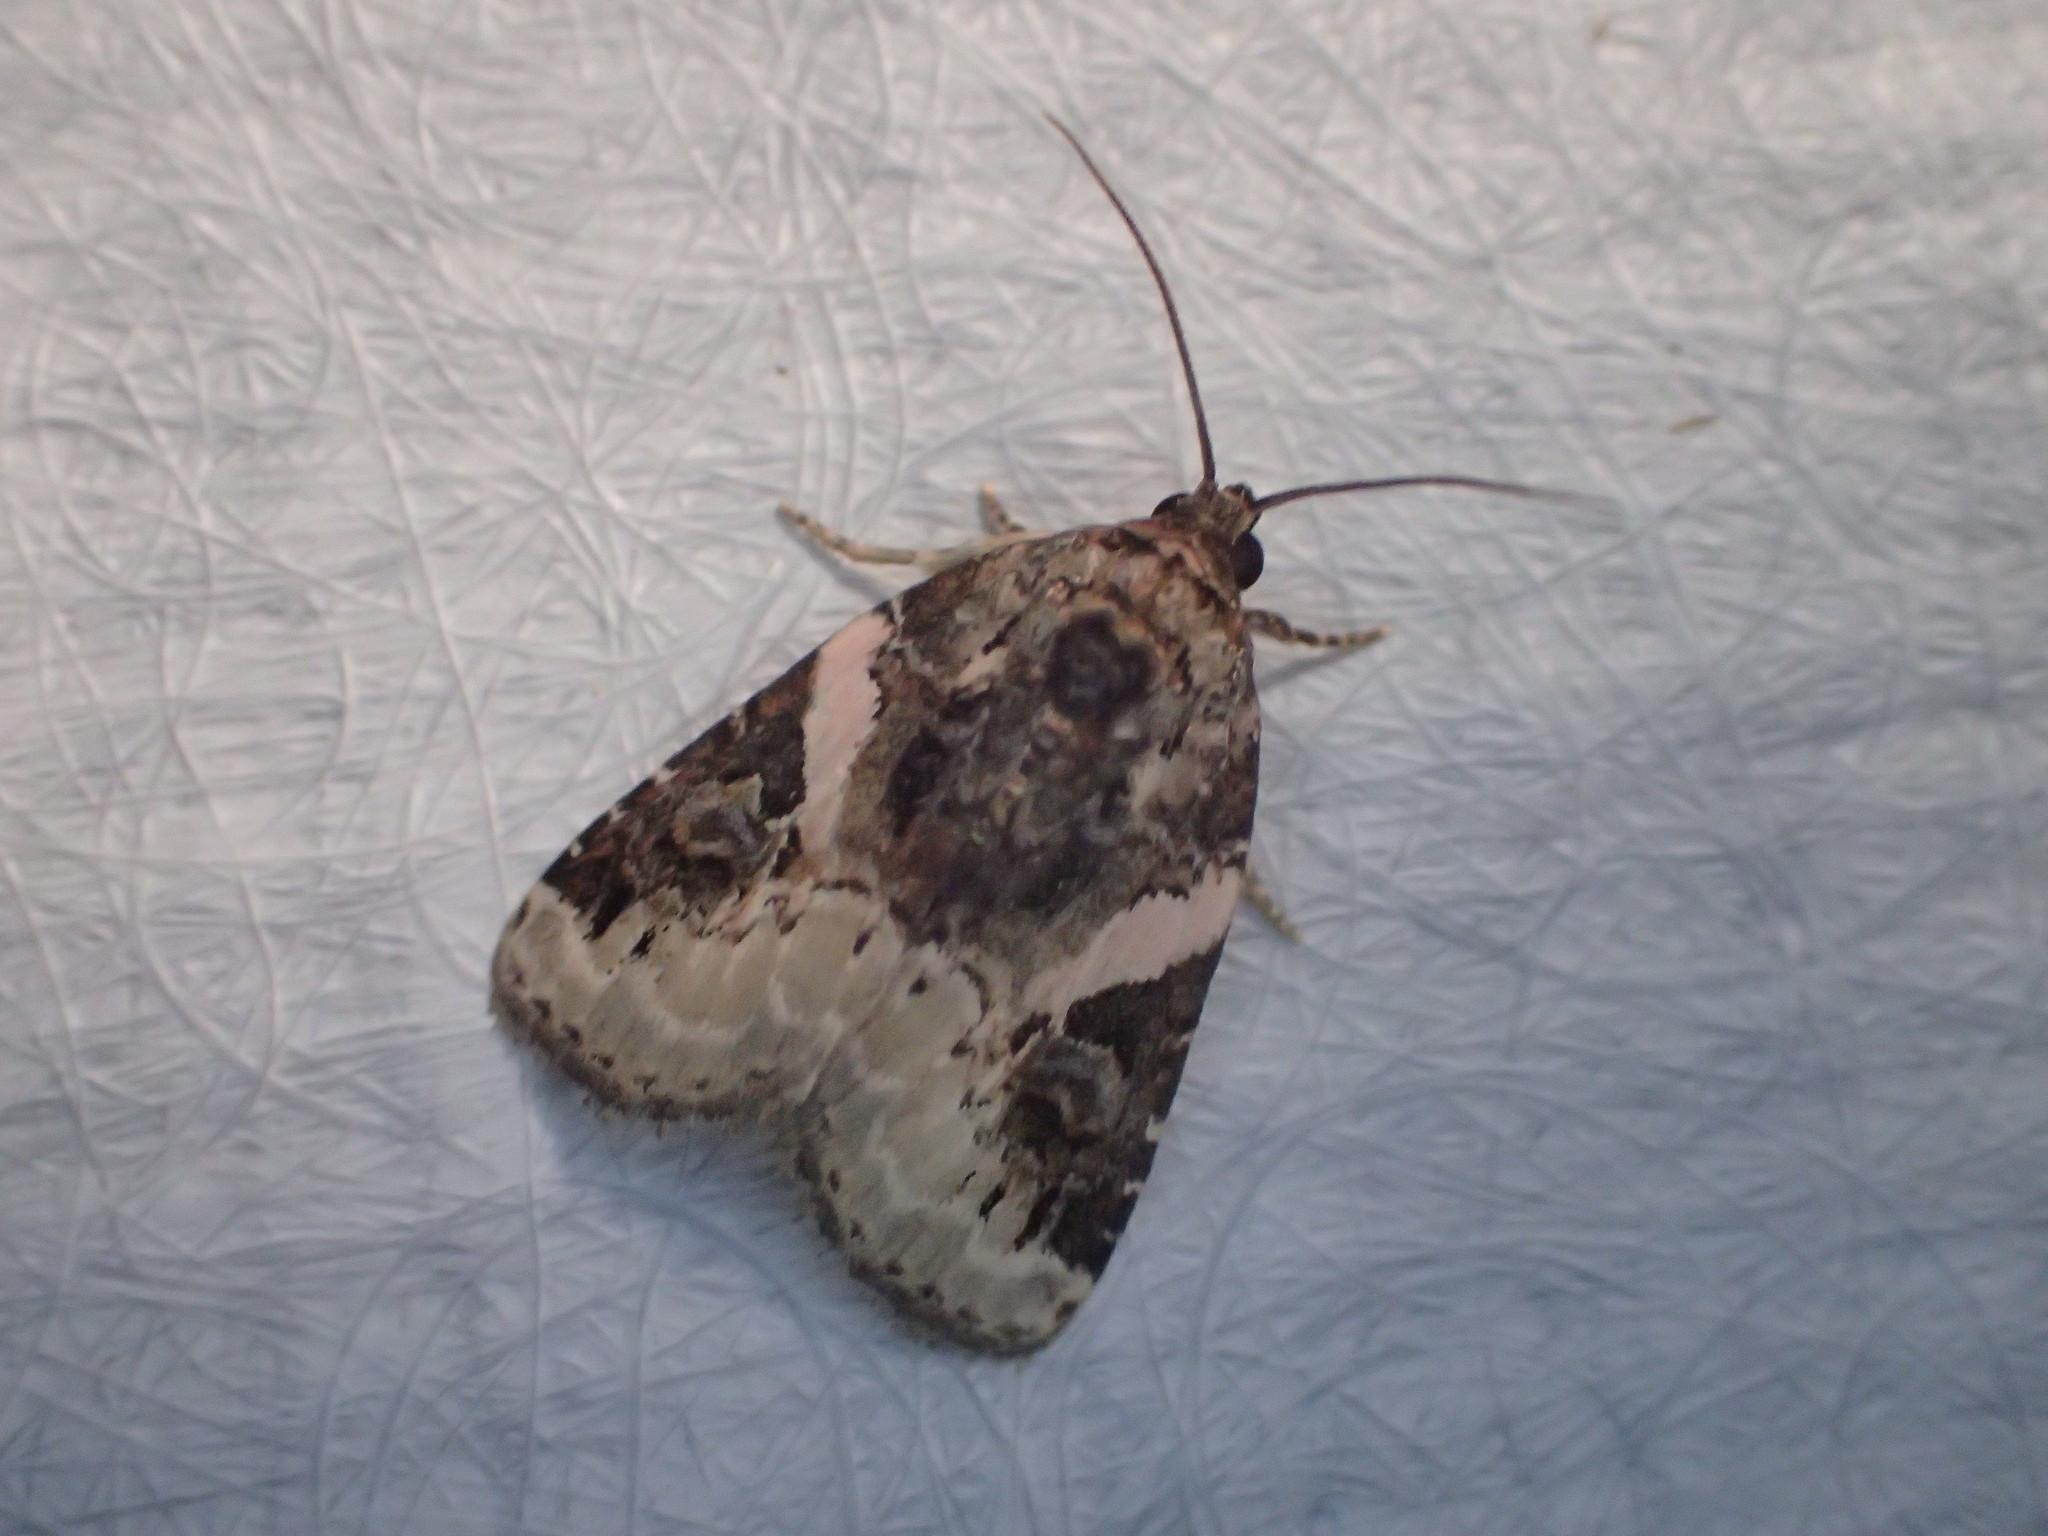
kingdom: Animalia
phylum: Arthropoda
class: Insecta
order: Lepidoptera
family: Noctuidae
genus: Pseudeustrotia
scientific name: Pseudeustrotia carneola
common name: Pink-barred lithacodia moth
